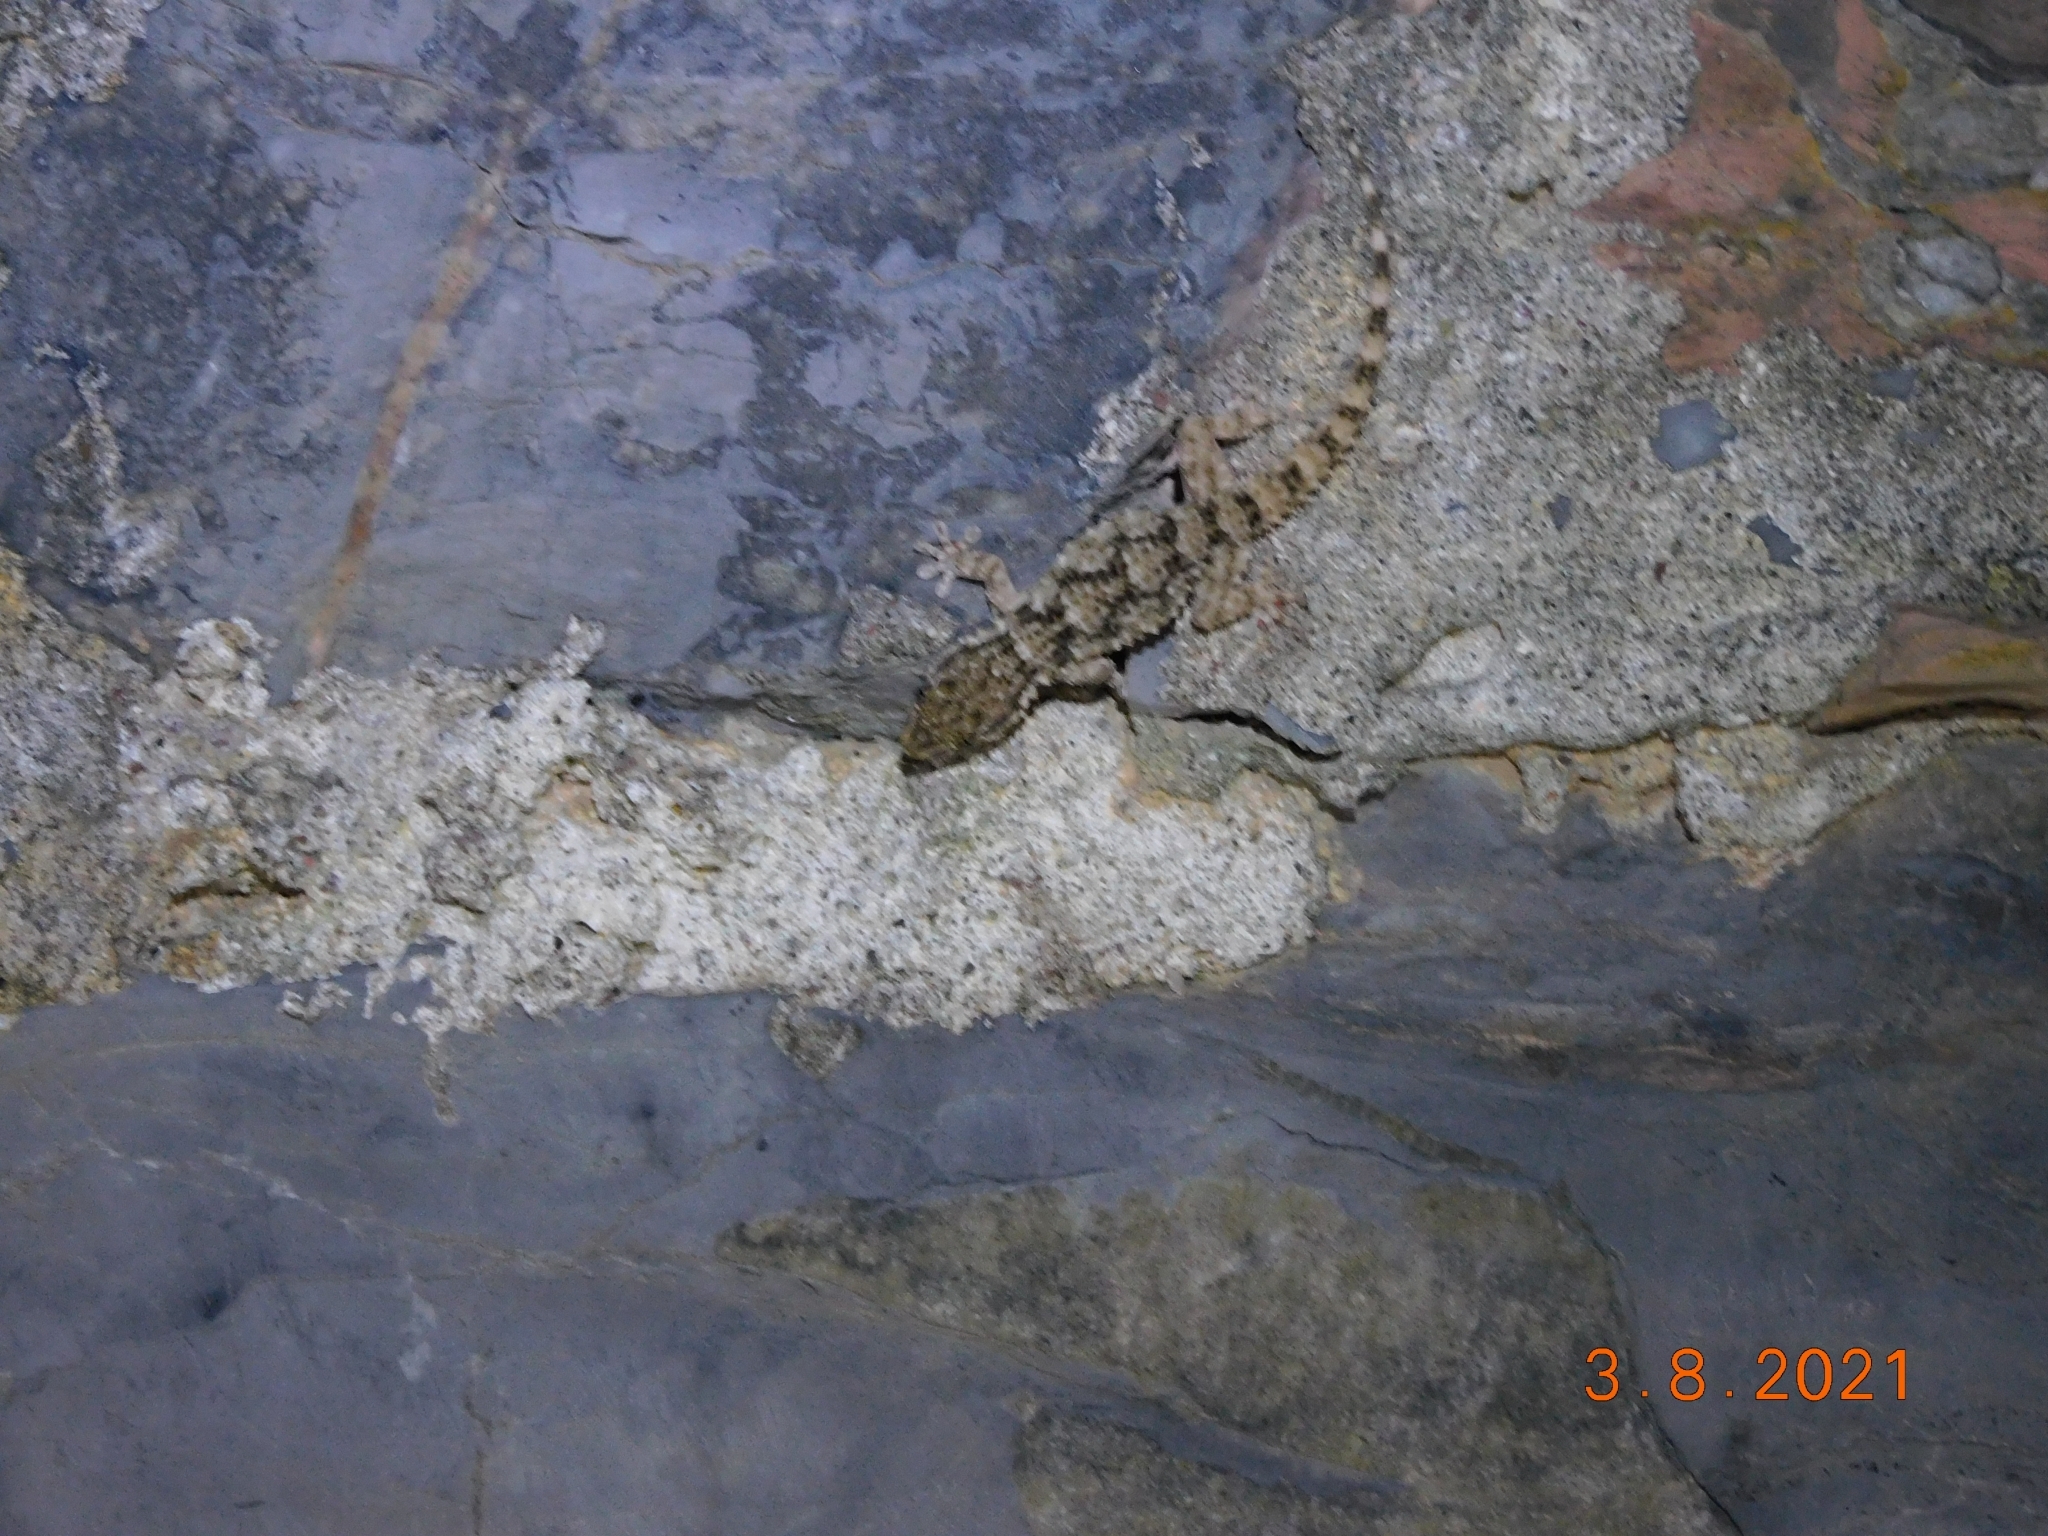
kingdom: Animalia
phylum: Chordata
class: Squamata
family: Phyllodactylidae
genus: Tarentola
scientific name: Tarentola mauritanica
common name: Moorish gecko
